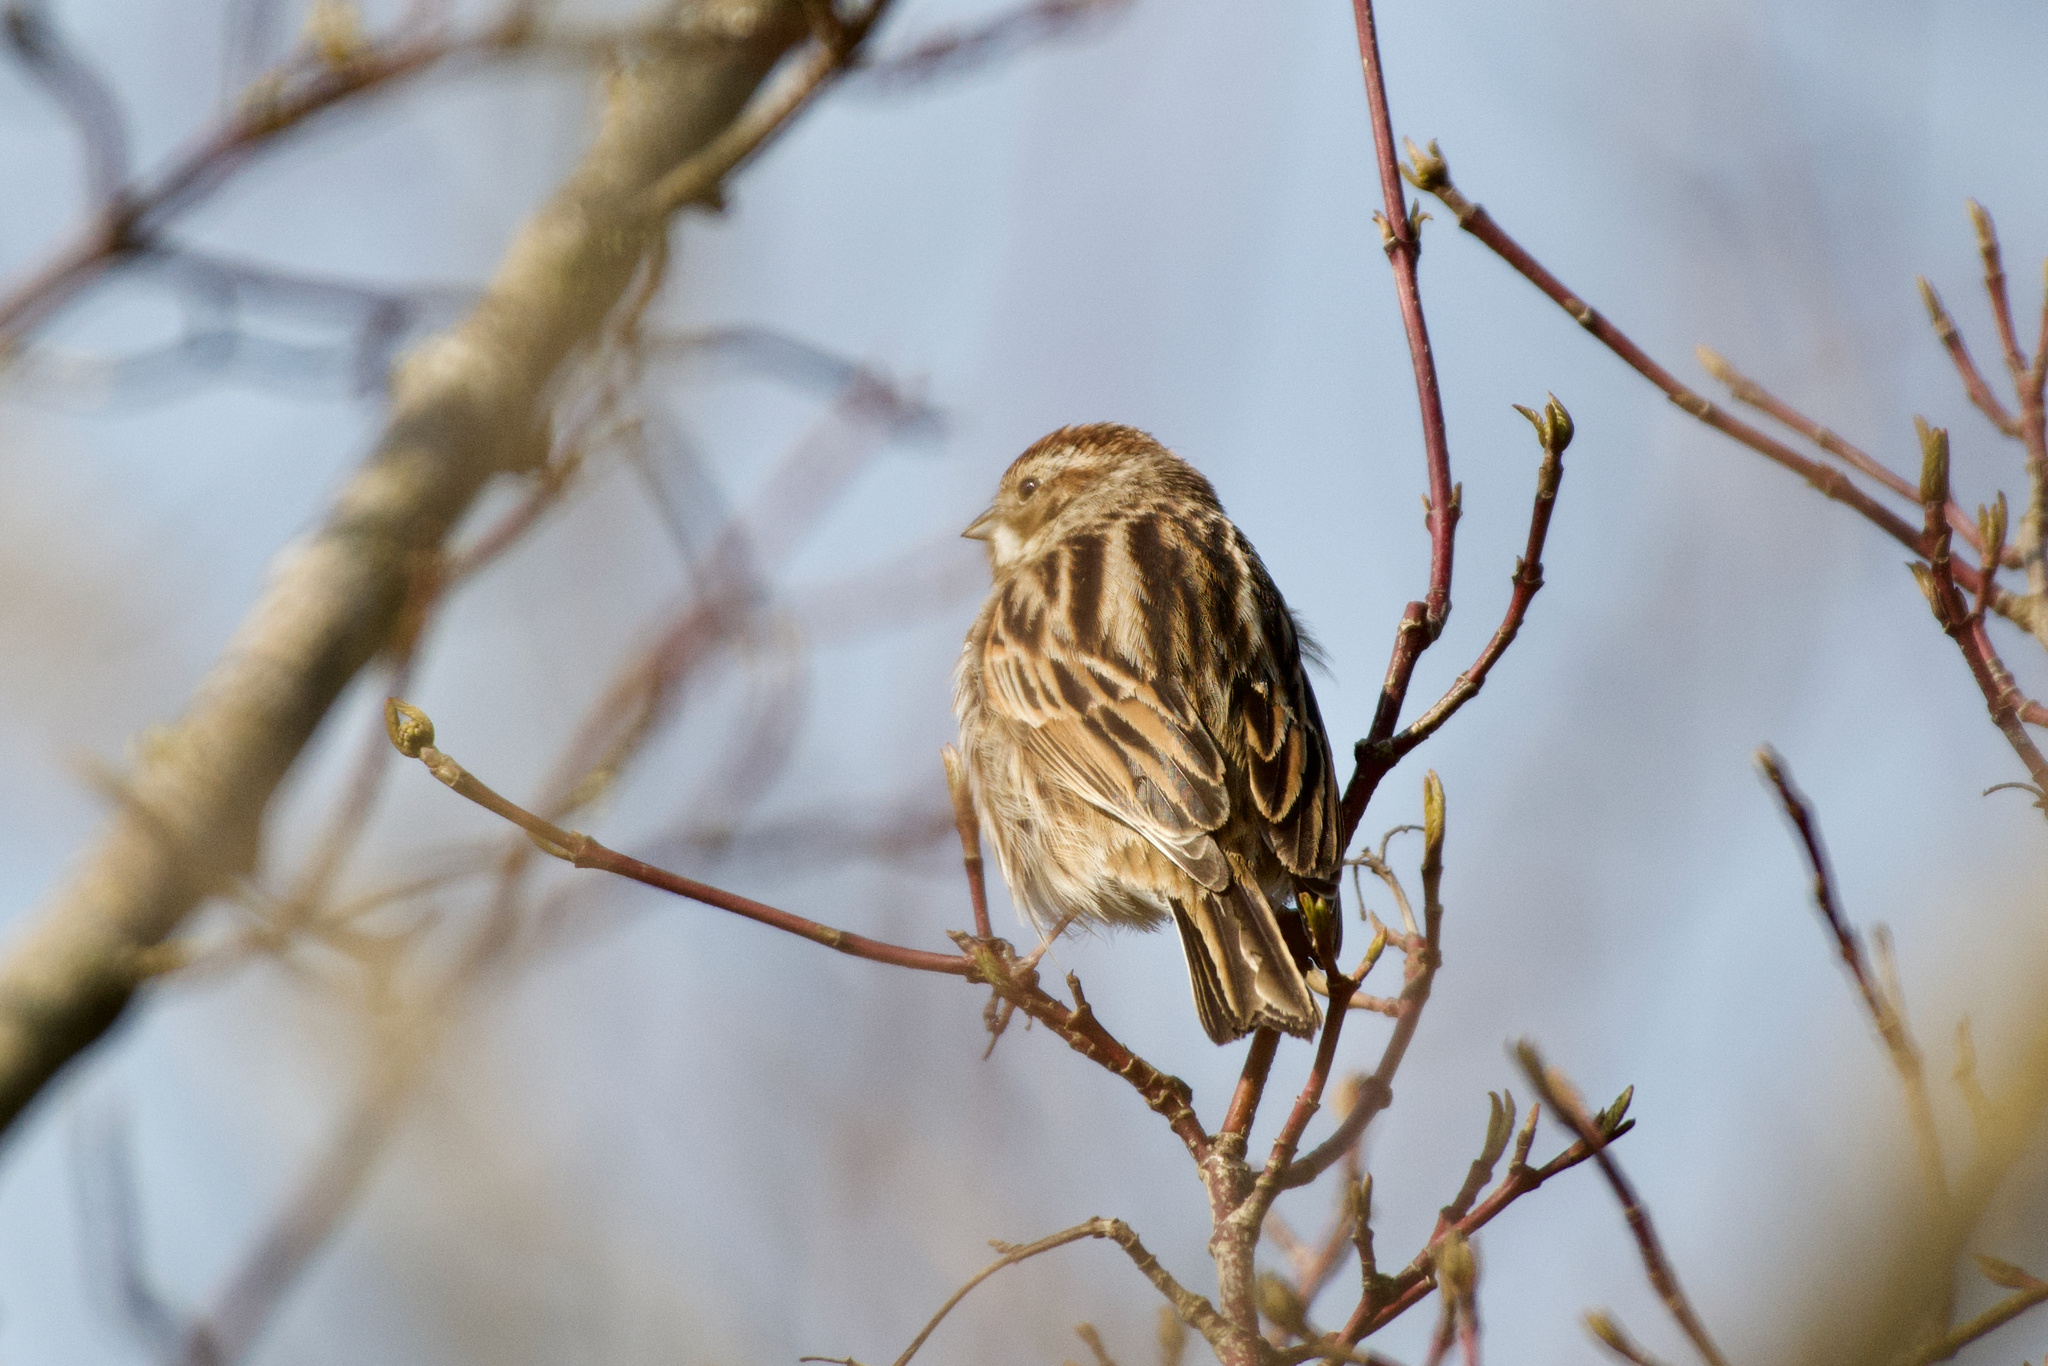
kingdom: Animalia
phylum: Chordata
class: Aves
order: Passeriformes
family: Emberizidae
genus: Emberiza
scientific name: Emberiza schoeniclus
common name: Reed bunting
